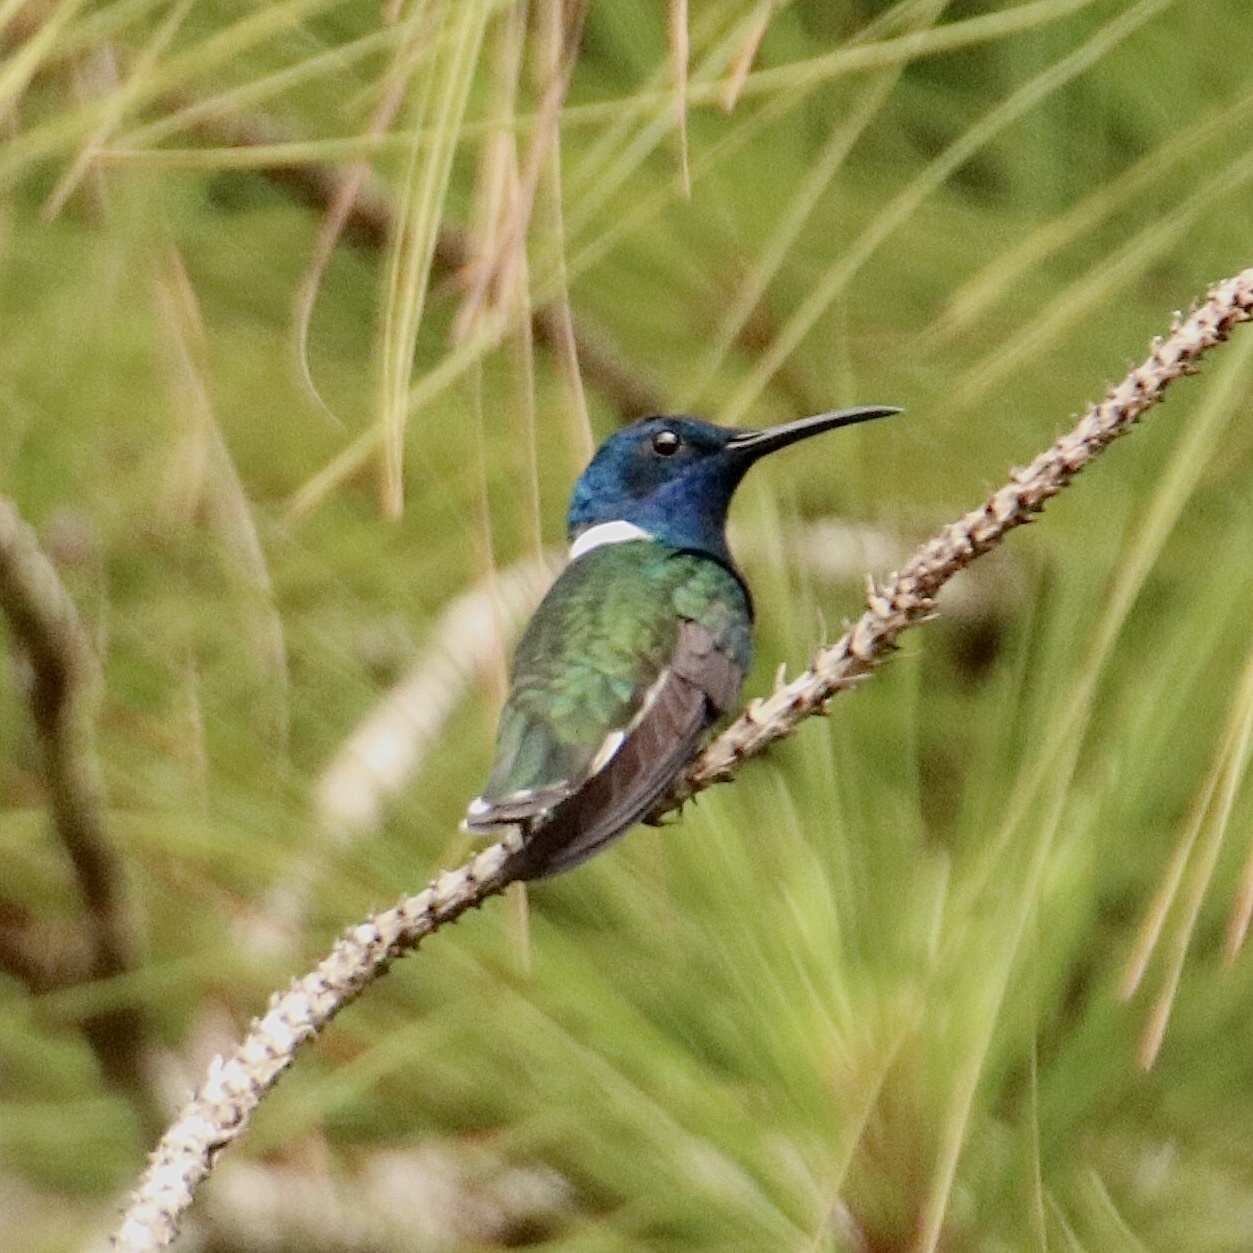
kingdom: Animalia
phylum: Chordata
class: Aves
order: Apodiformes
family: Trochilidae
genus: Florisuga
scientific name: Florisuga mellivora
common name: White-necked jacobin
